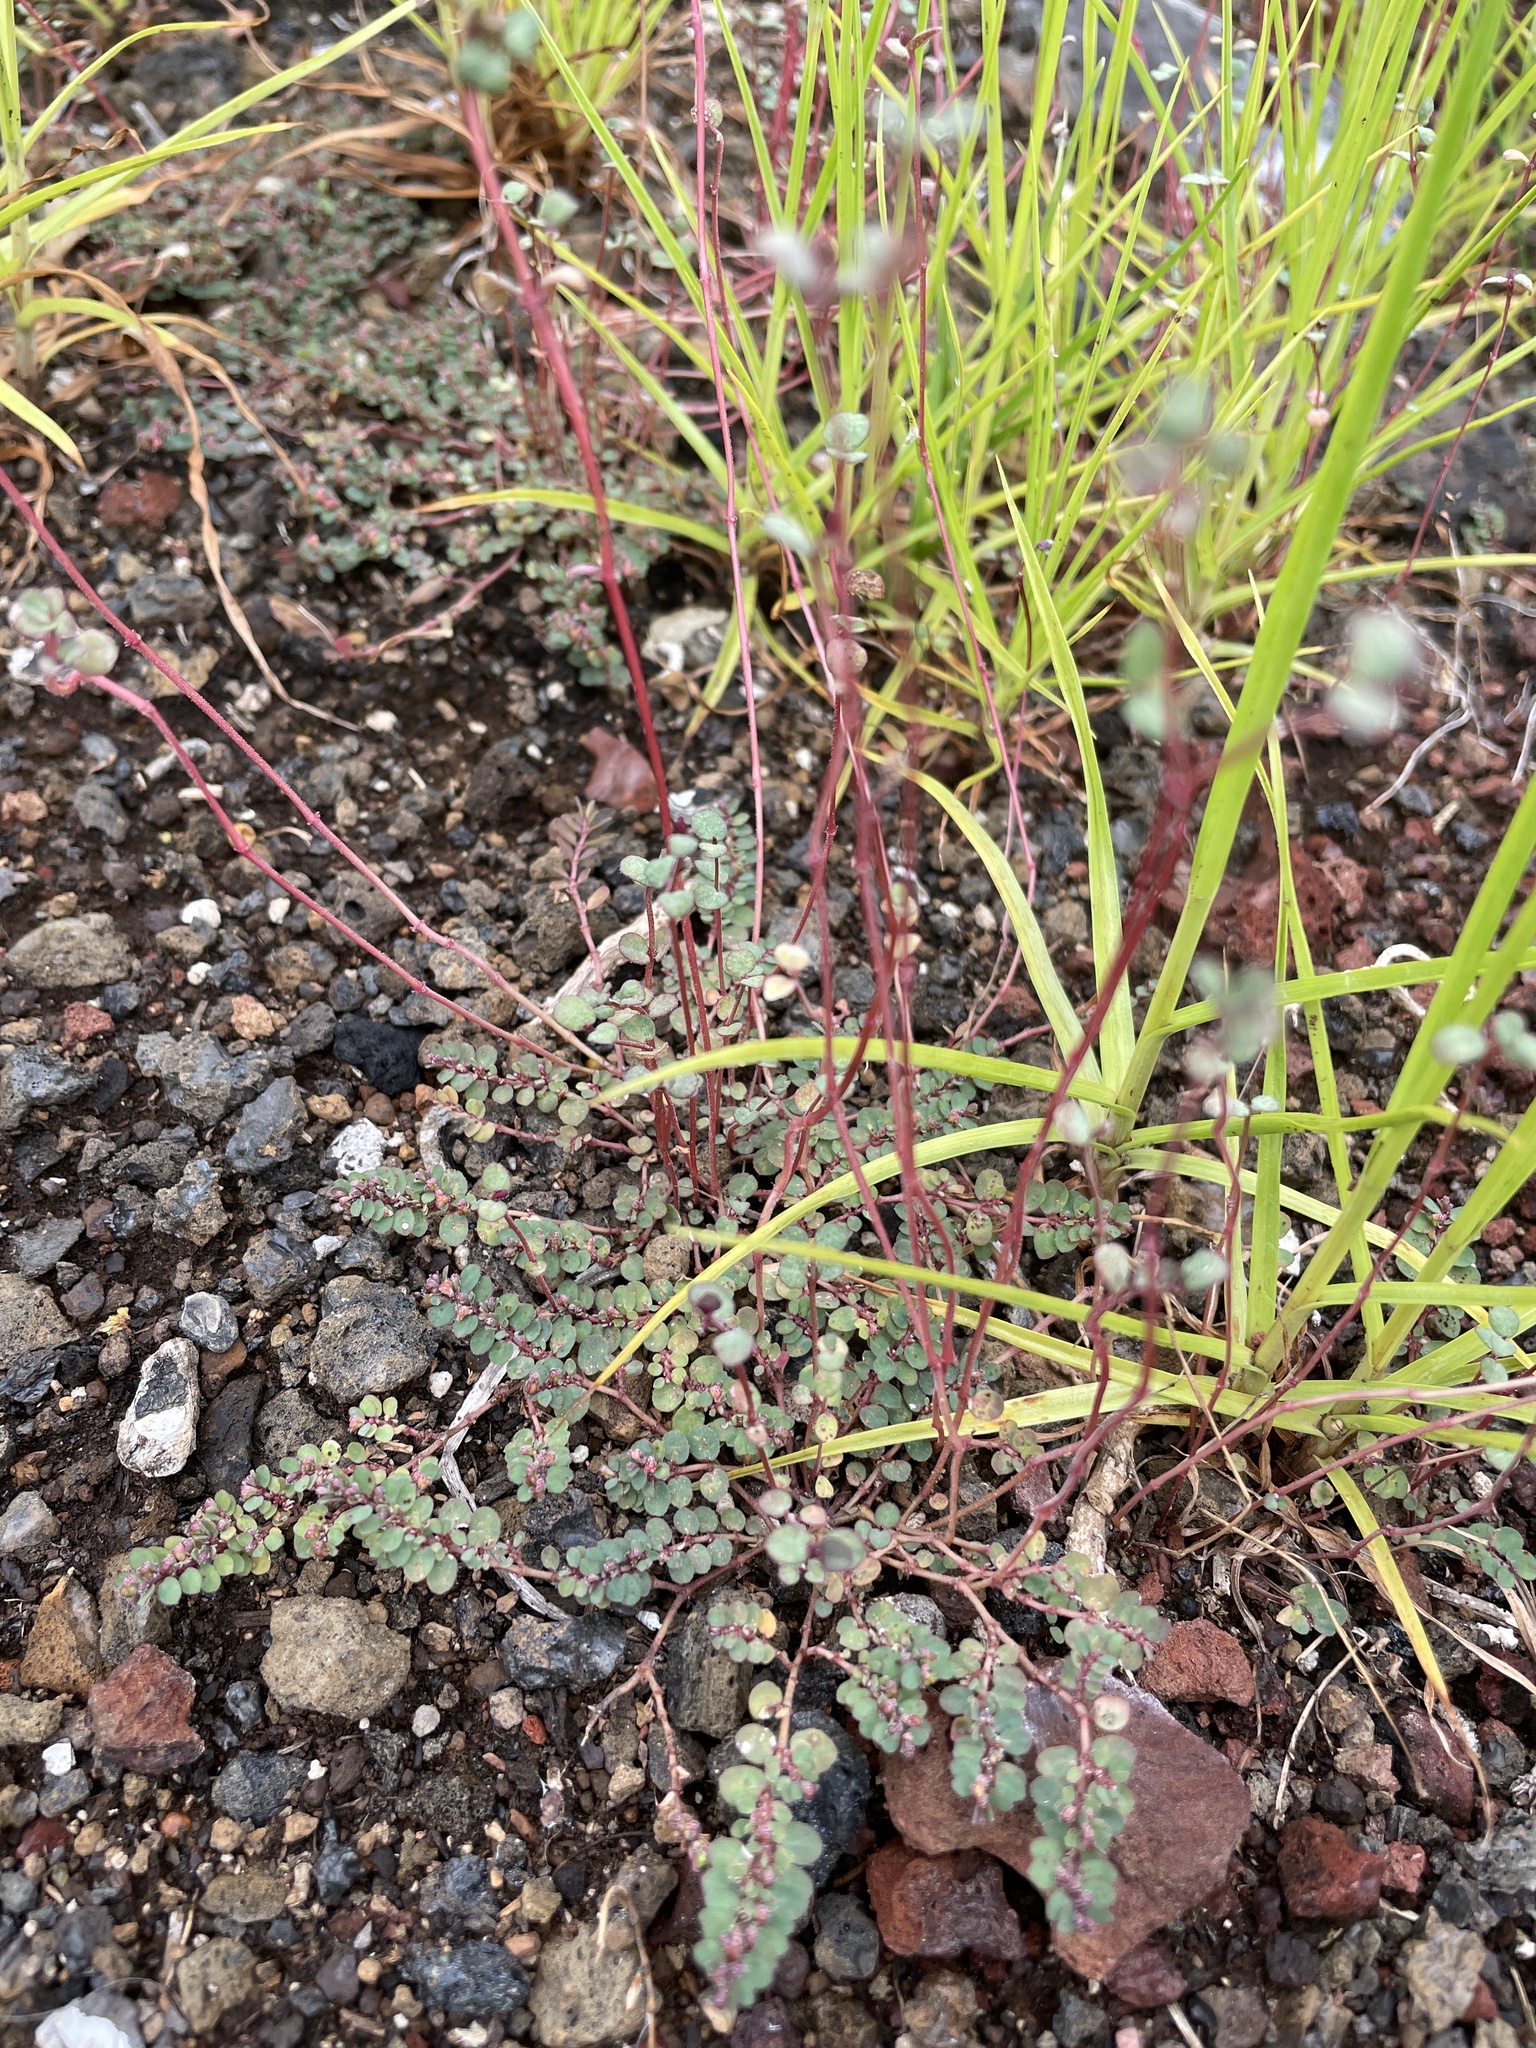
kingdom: Plantae
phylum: Tracheophyta
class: Magnoliopsida
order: Malpighiales
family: Euphorbiaceae
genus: Euphorbia
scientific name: Euphorbia prostrata
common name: Prostrate sandmat
